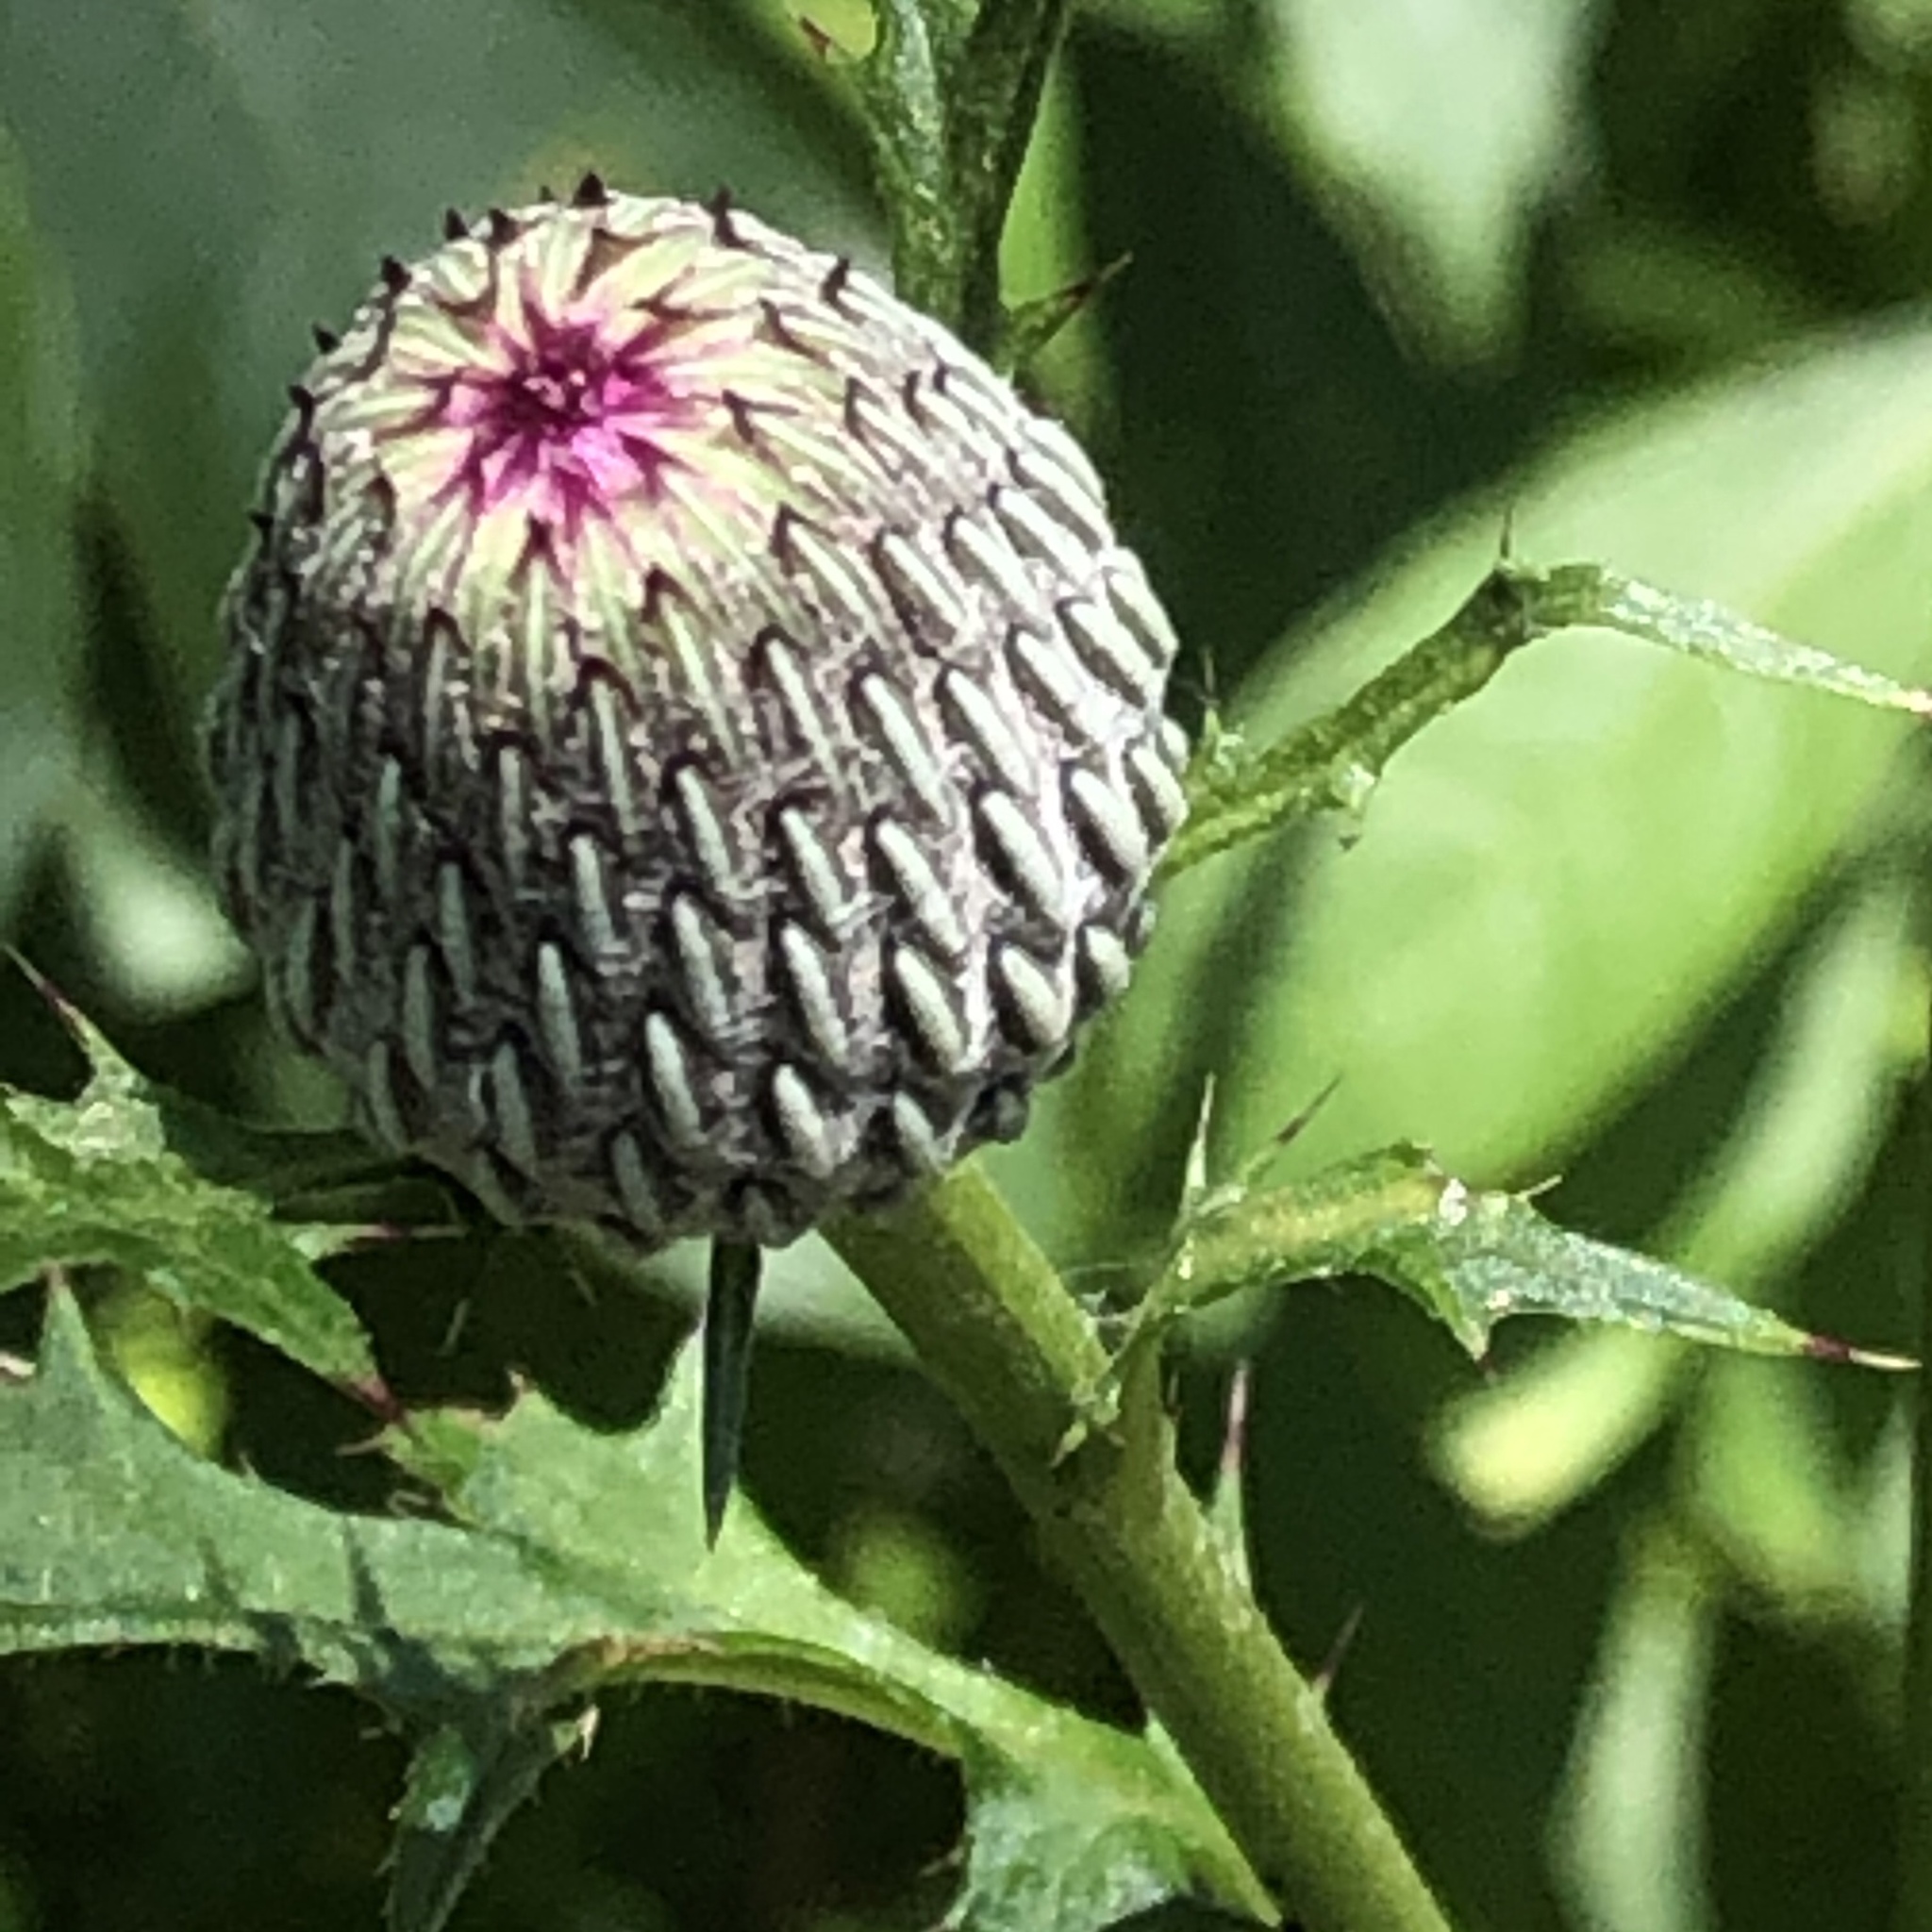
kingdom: Plantae
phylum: Tracheophyta
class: Magnoliopsida
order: Asterales
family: Asteraceae
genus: Cirsium
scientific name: Cirsium muticum
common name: Dunce-nettle
